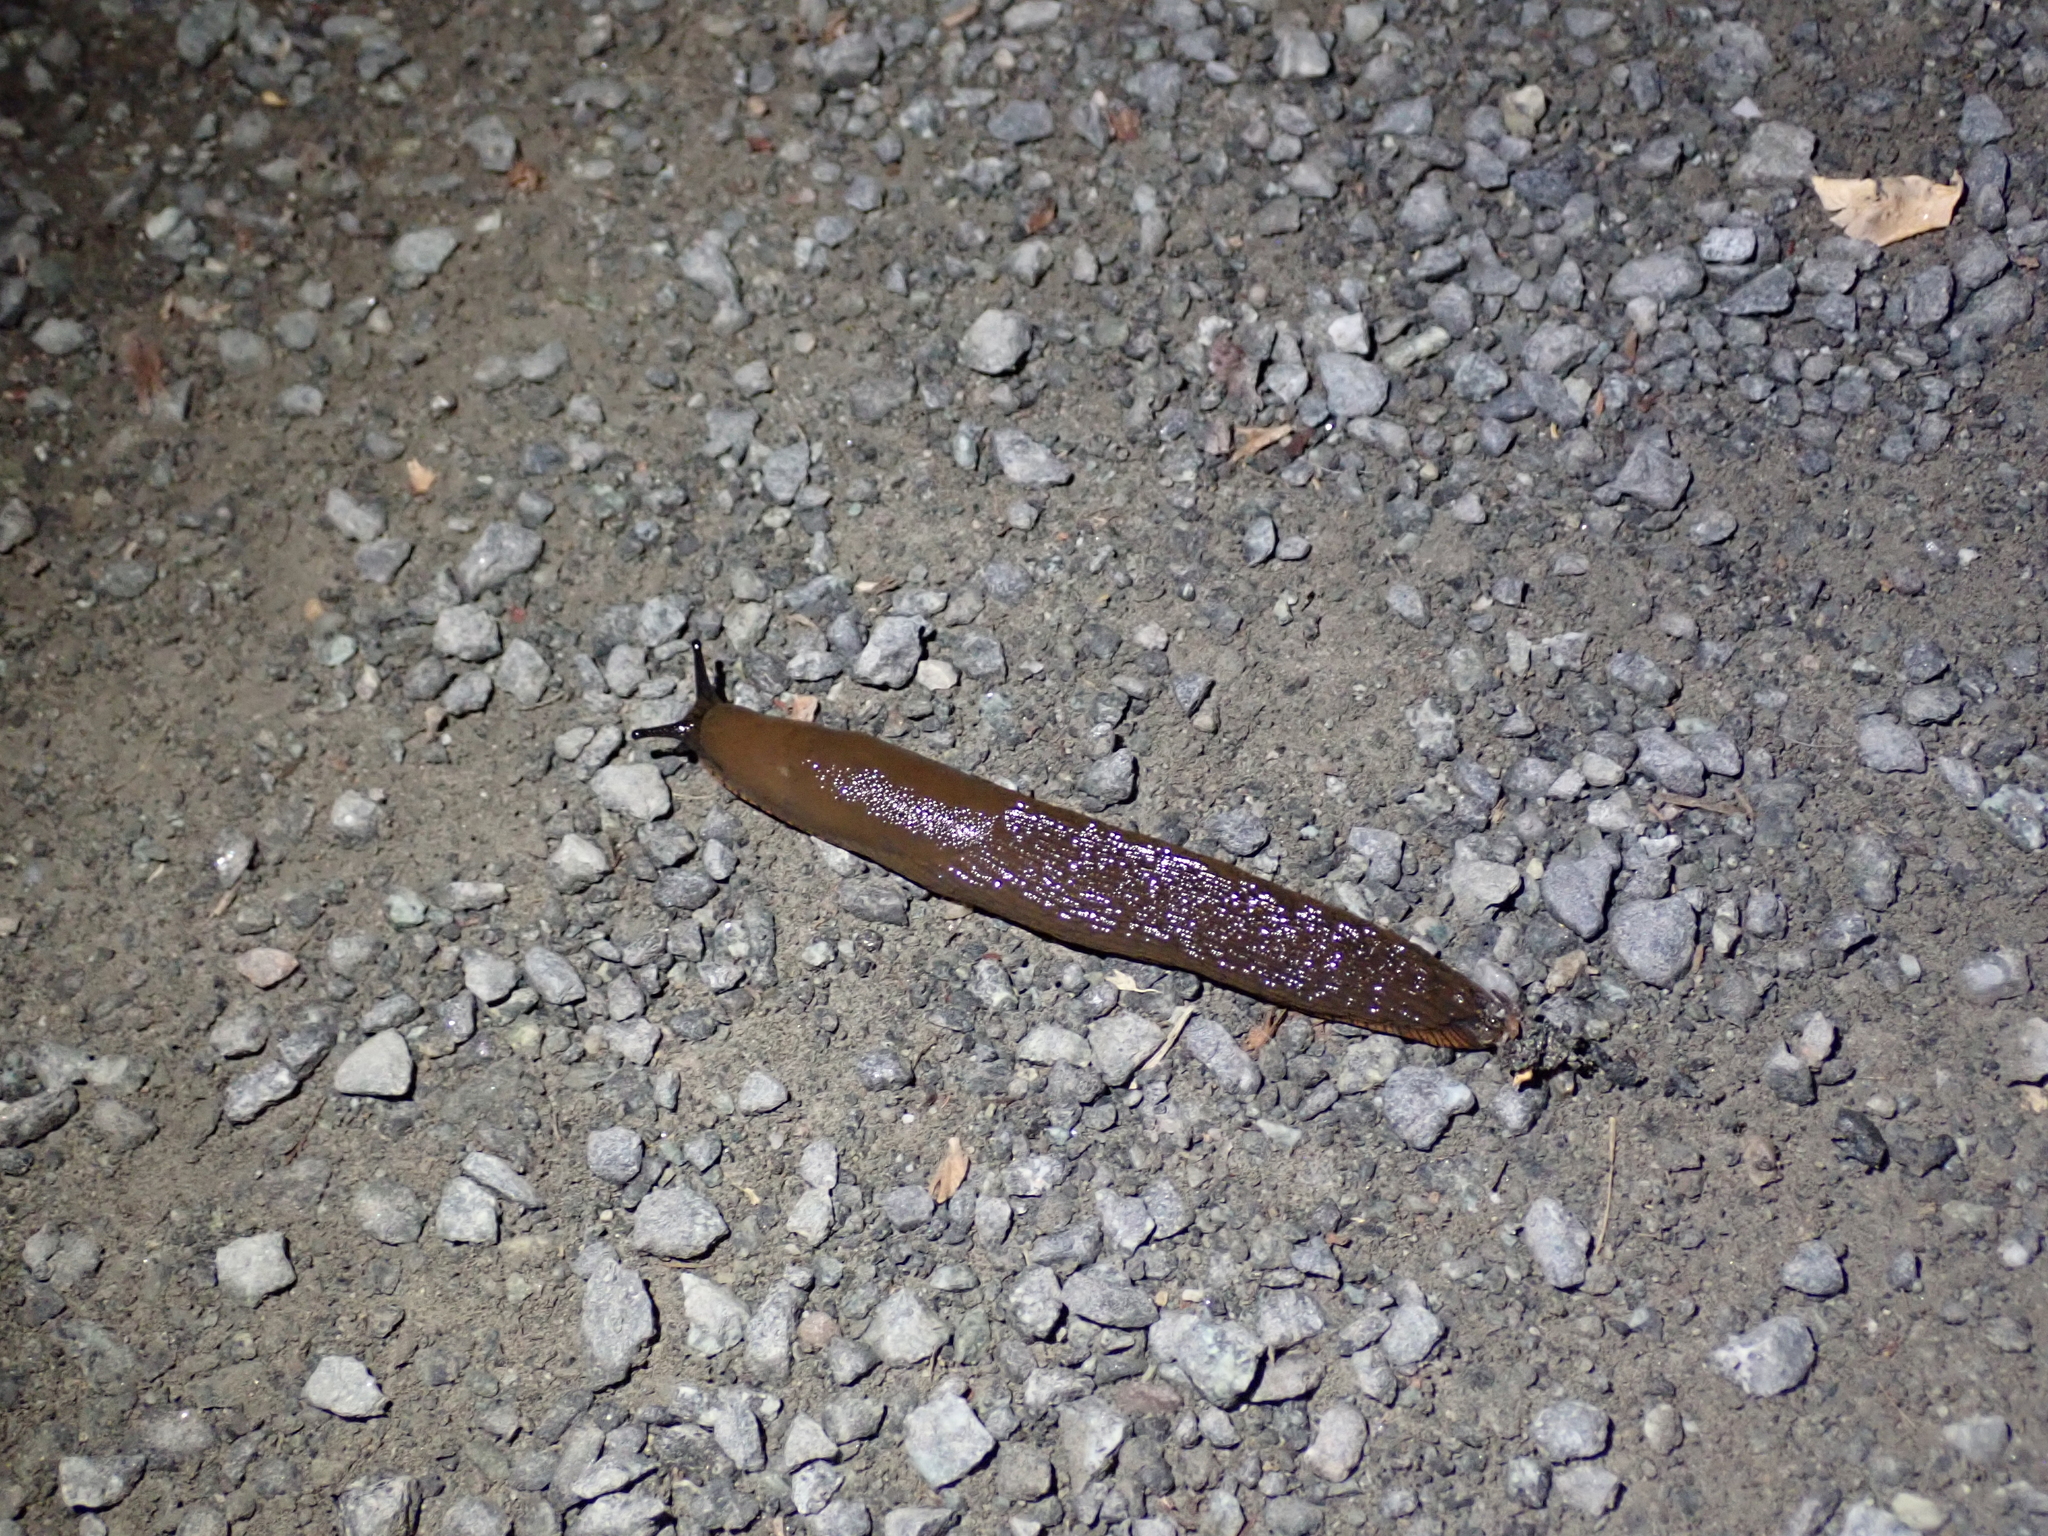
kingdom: Animalia
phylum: Mollusca
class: Gastropoda
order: Stylommatophora
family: Arionidae
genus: Arion
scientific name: Arion
